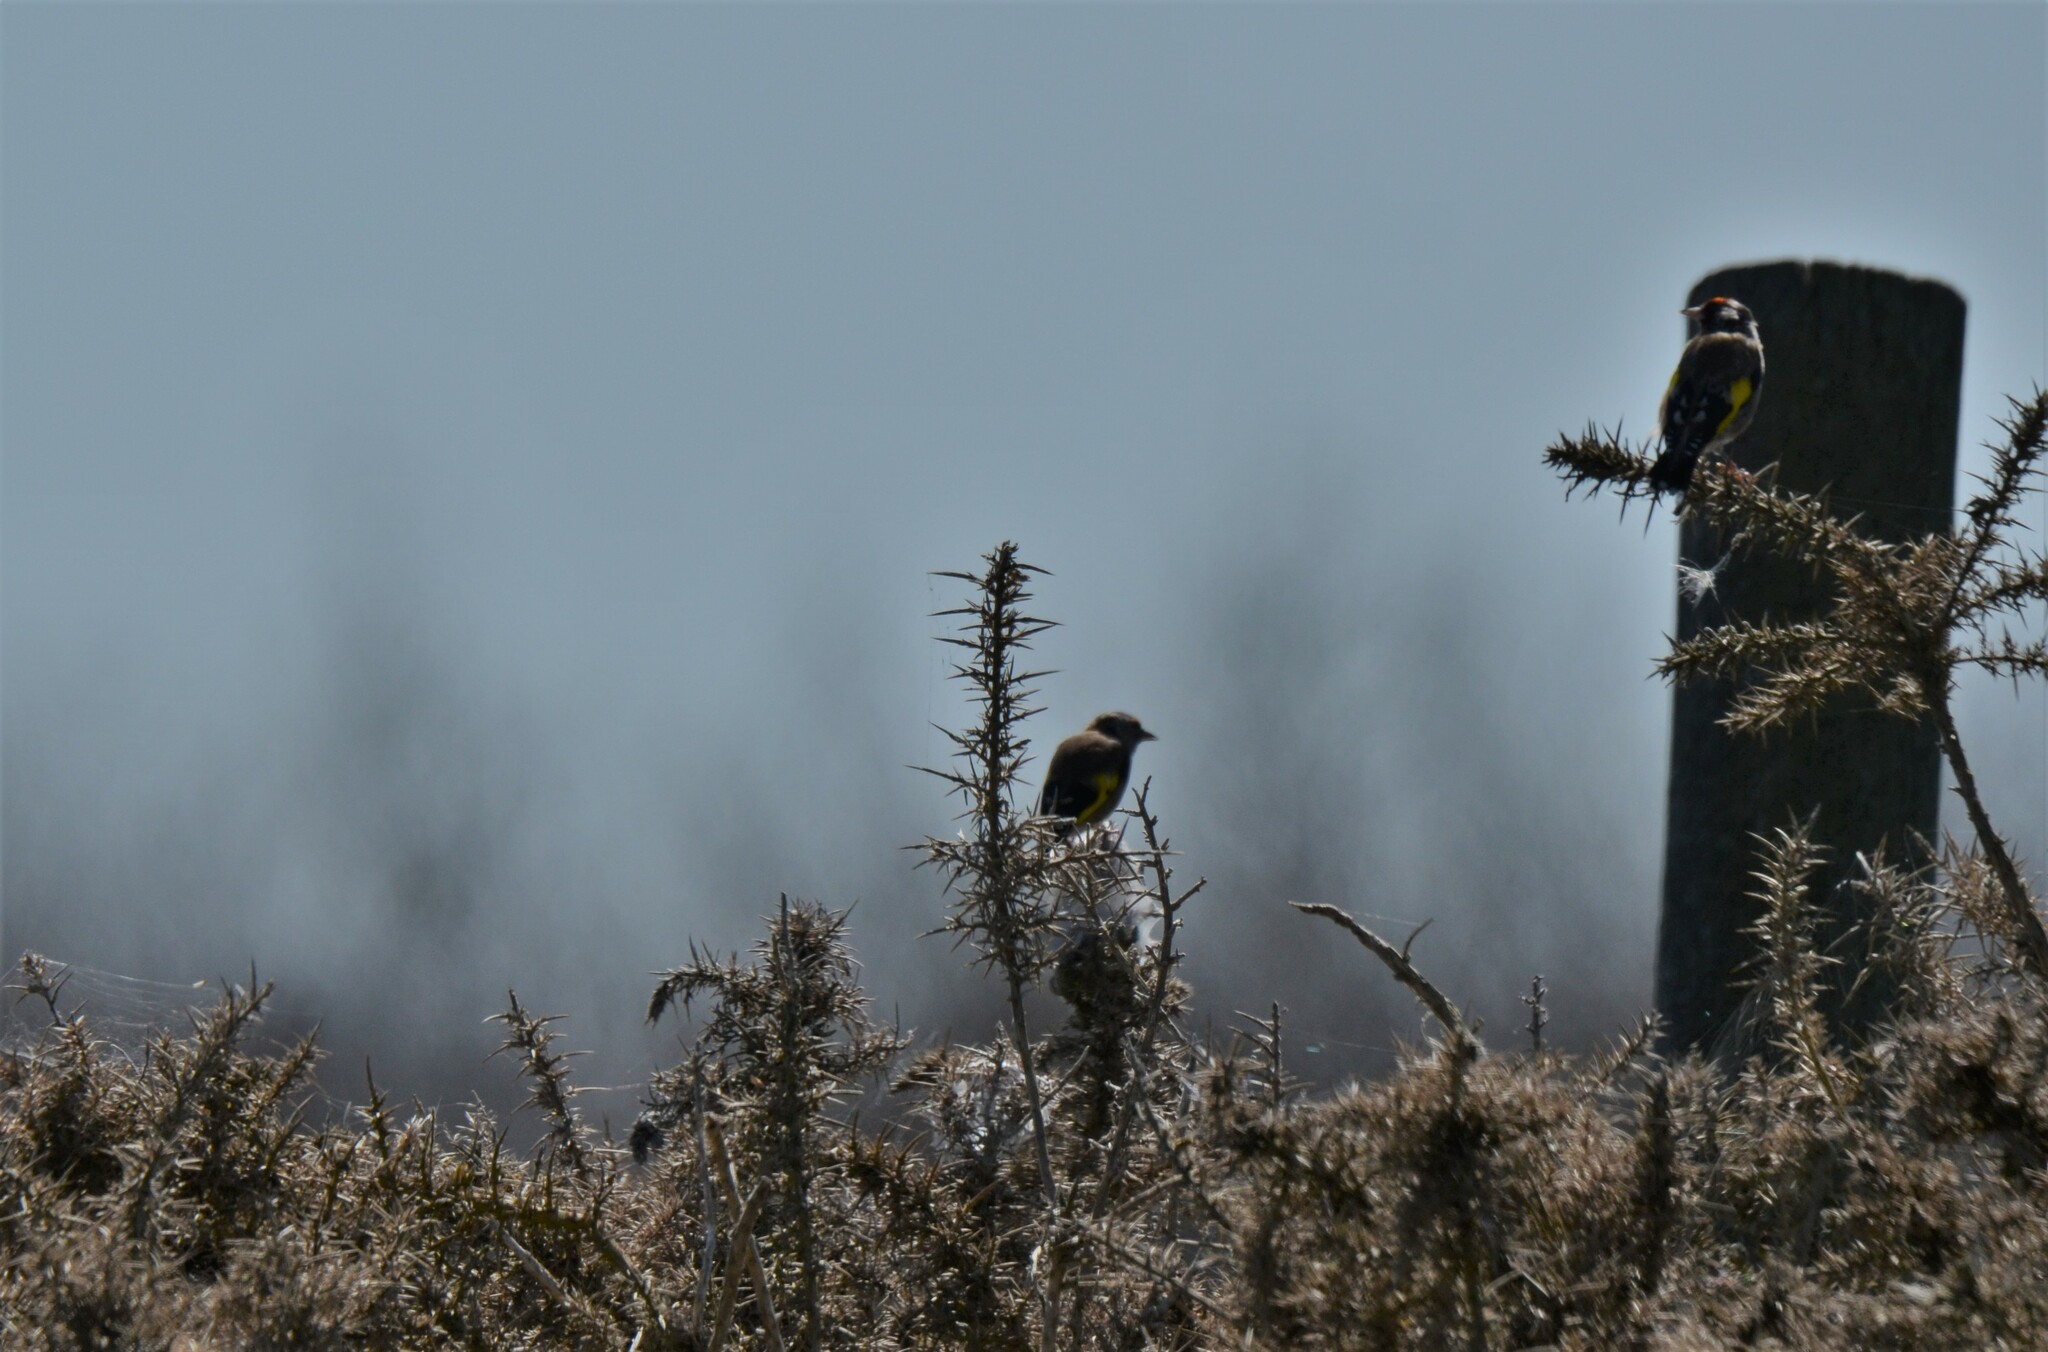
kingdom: Animalia
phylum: Chordata
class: Aves
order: Passeriformes
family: Fringillidae
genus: Carduelis
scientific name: Carduelis carduelis
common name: European goldfinch
